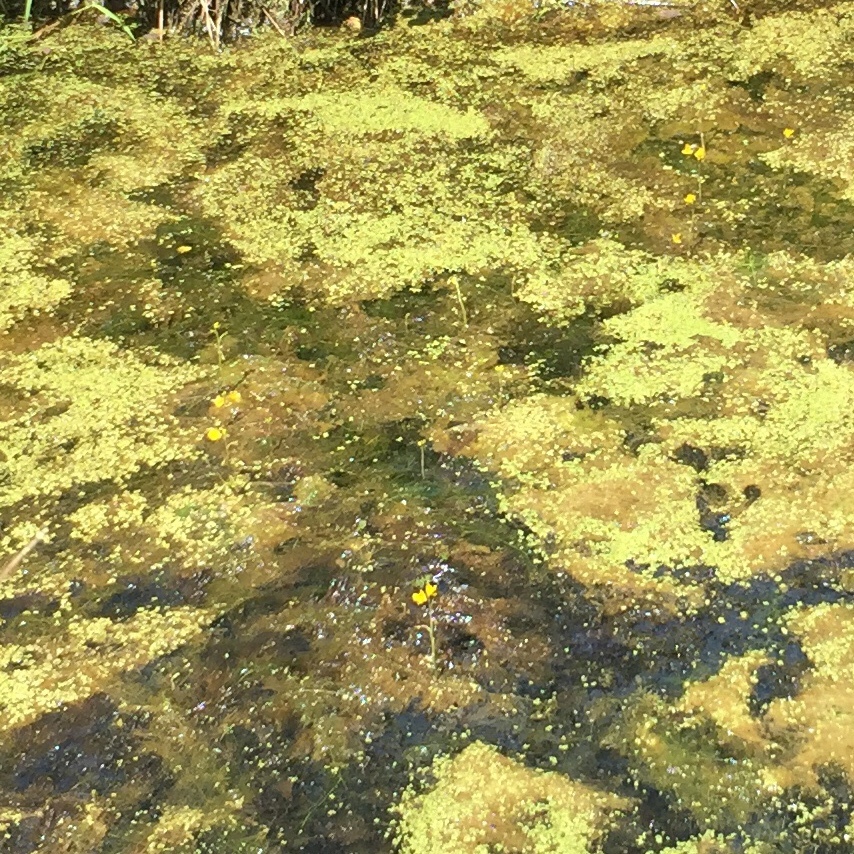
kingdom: Plantae
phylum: Tracheophyta
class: Magnoliopsida
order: Lamiales
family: Lentibulariaceae
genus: Utricularia
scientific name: Utricularia macrorhiza
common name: Common bladderwort
